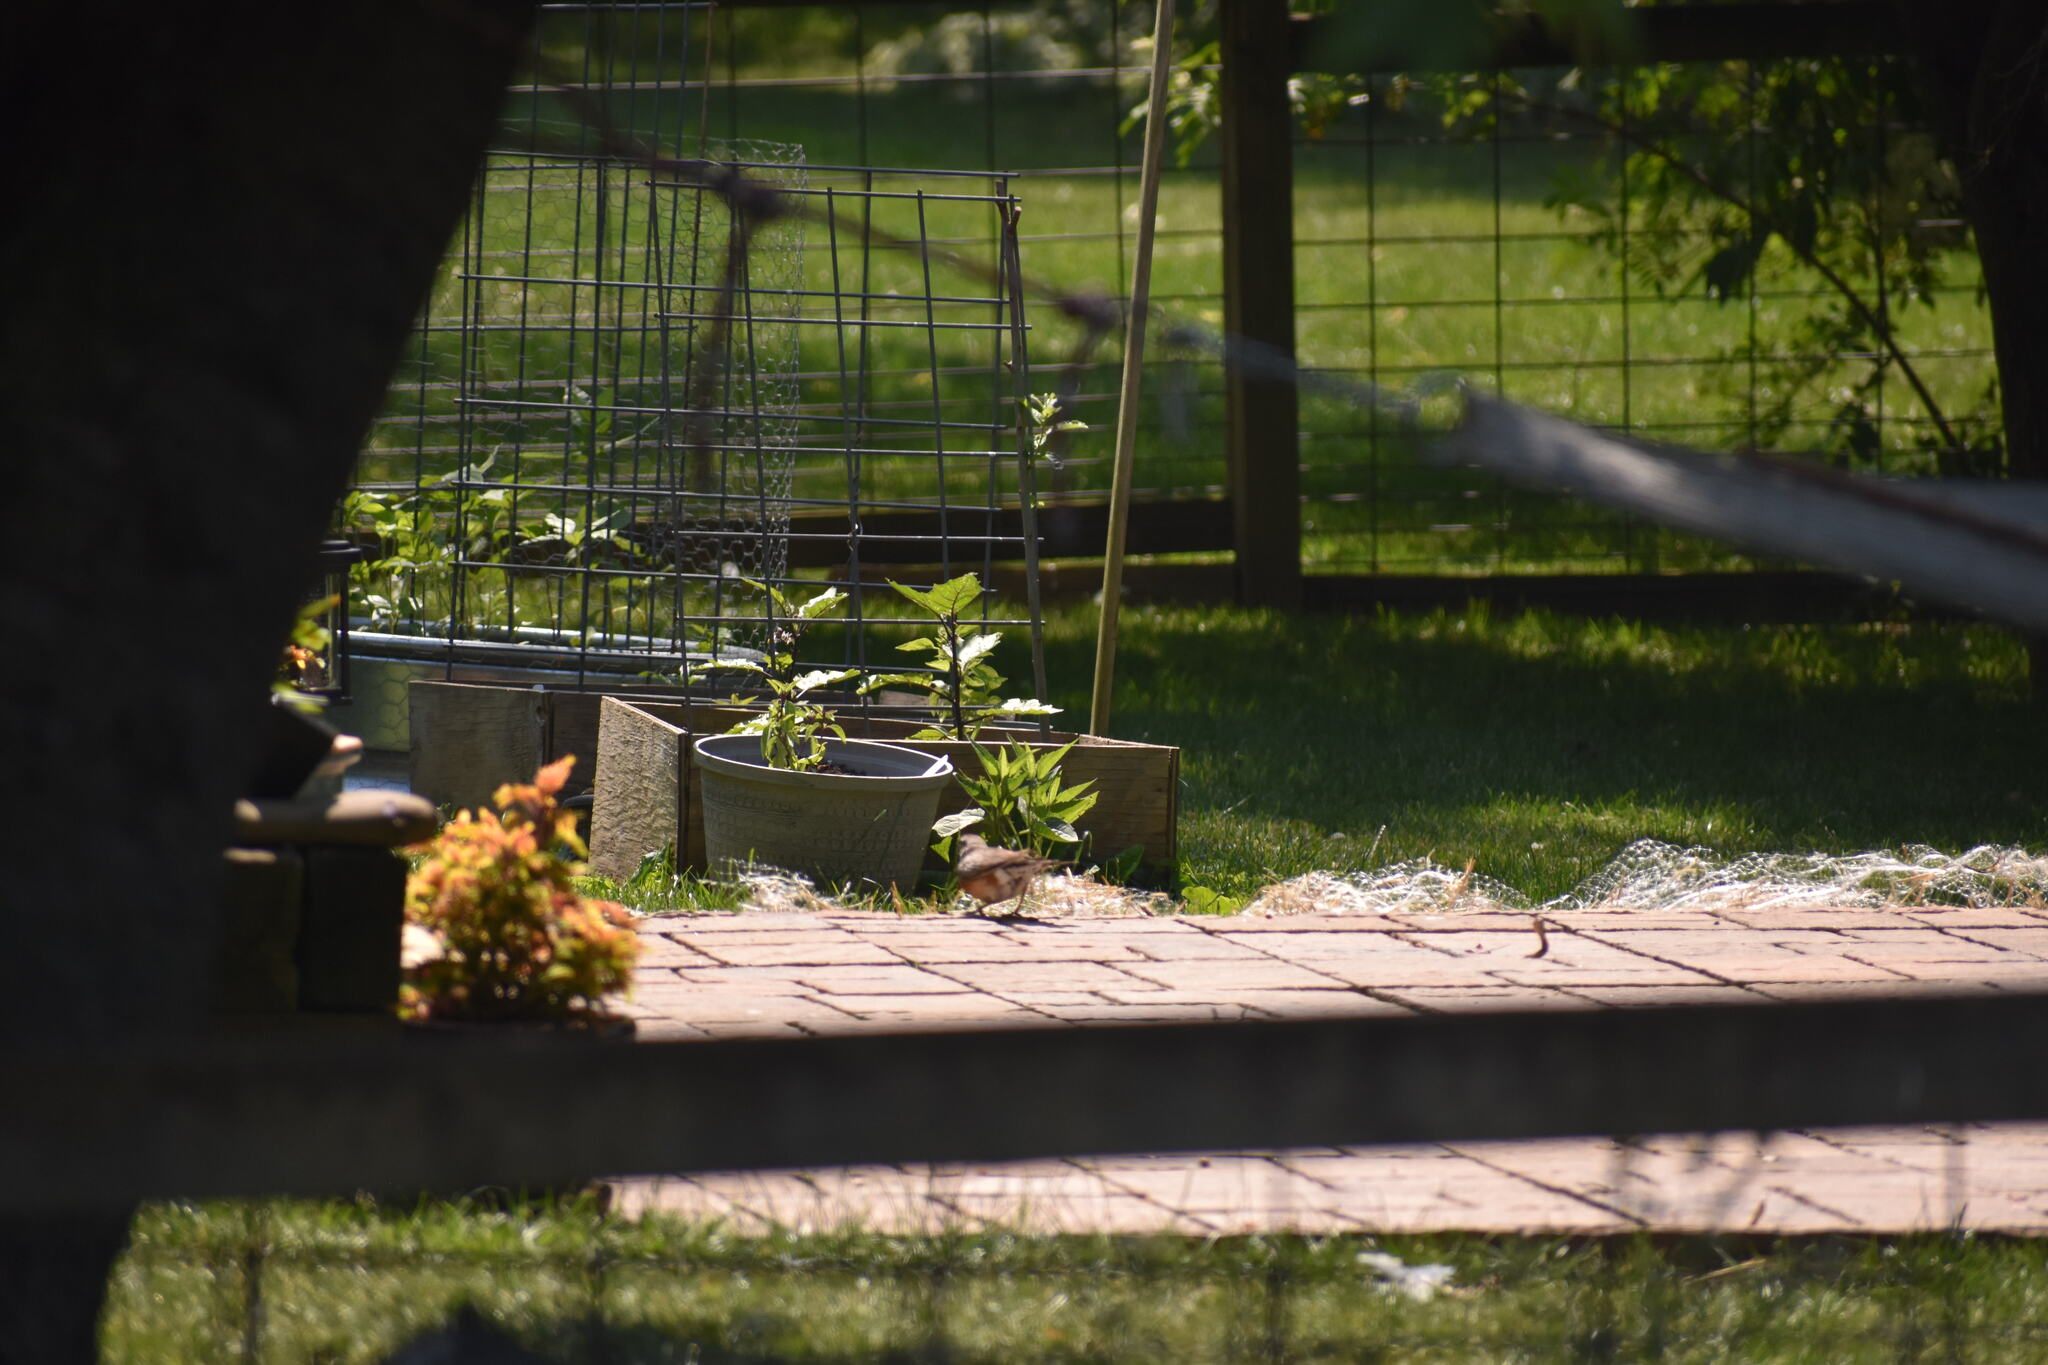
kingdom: Animalia
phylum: Chordata
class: Aves
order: Passeriformes
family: Turdidae
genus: Turdus
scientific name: Turdus migratorius
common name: American robin
